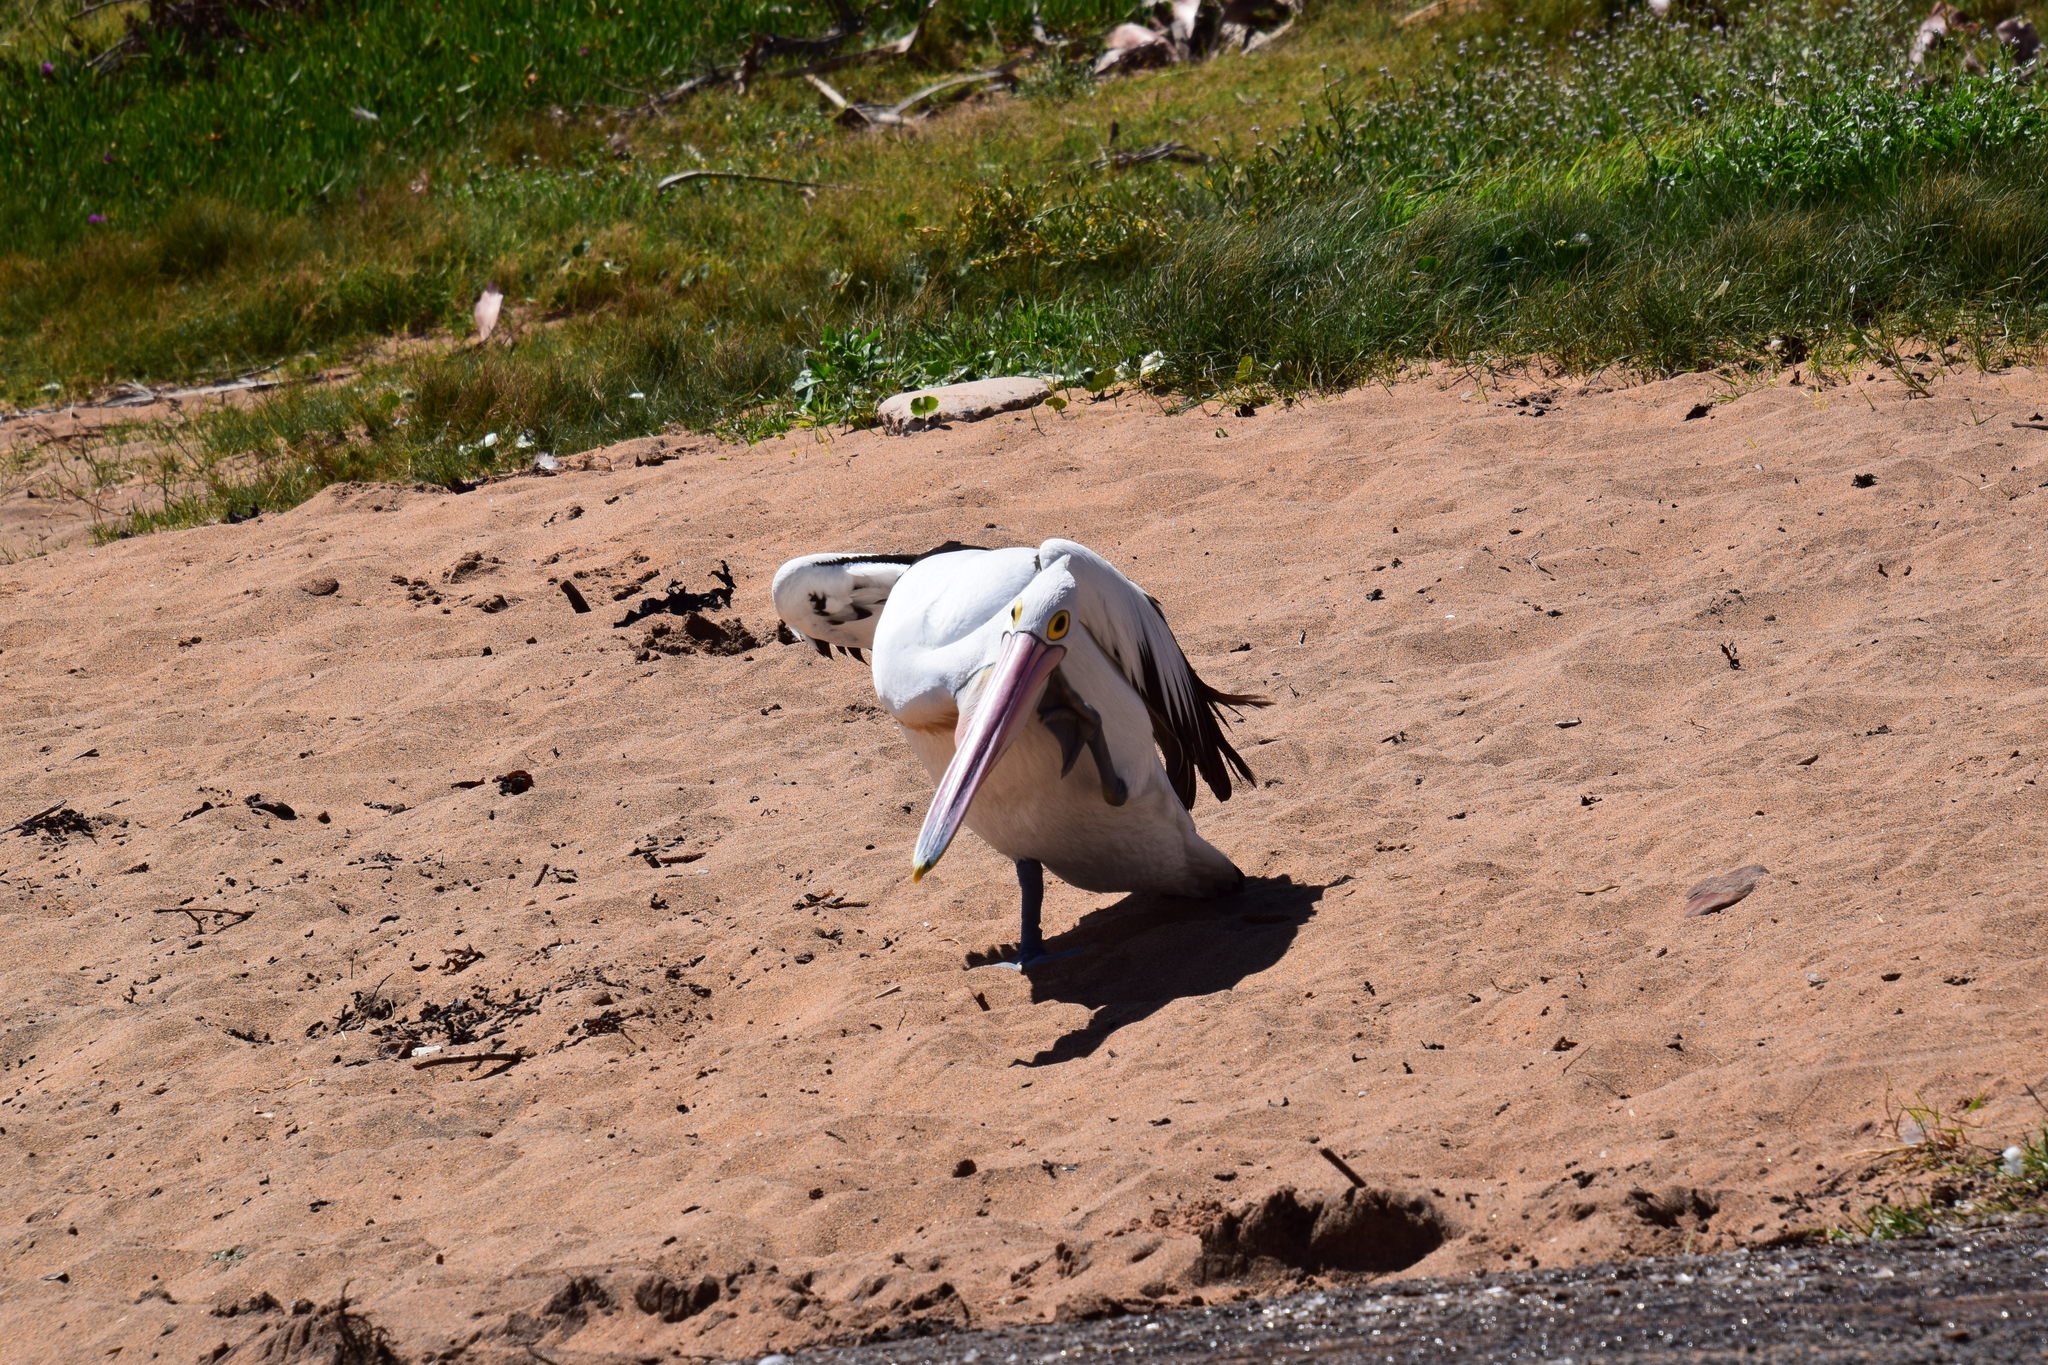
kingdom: Animalia
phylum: Chordata
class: Aves
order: Pelecaniformes
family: Pelecanidae
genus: Pelecanus
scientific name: Pelecanus conspicillatus
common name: Australian pelican
